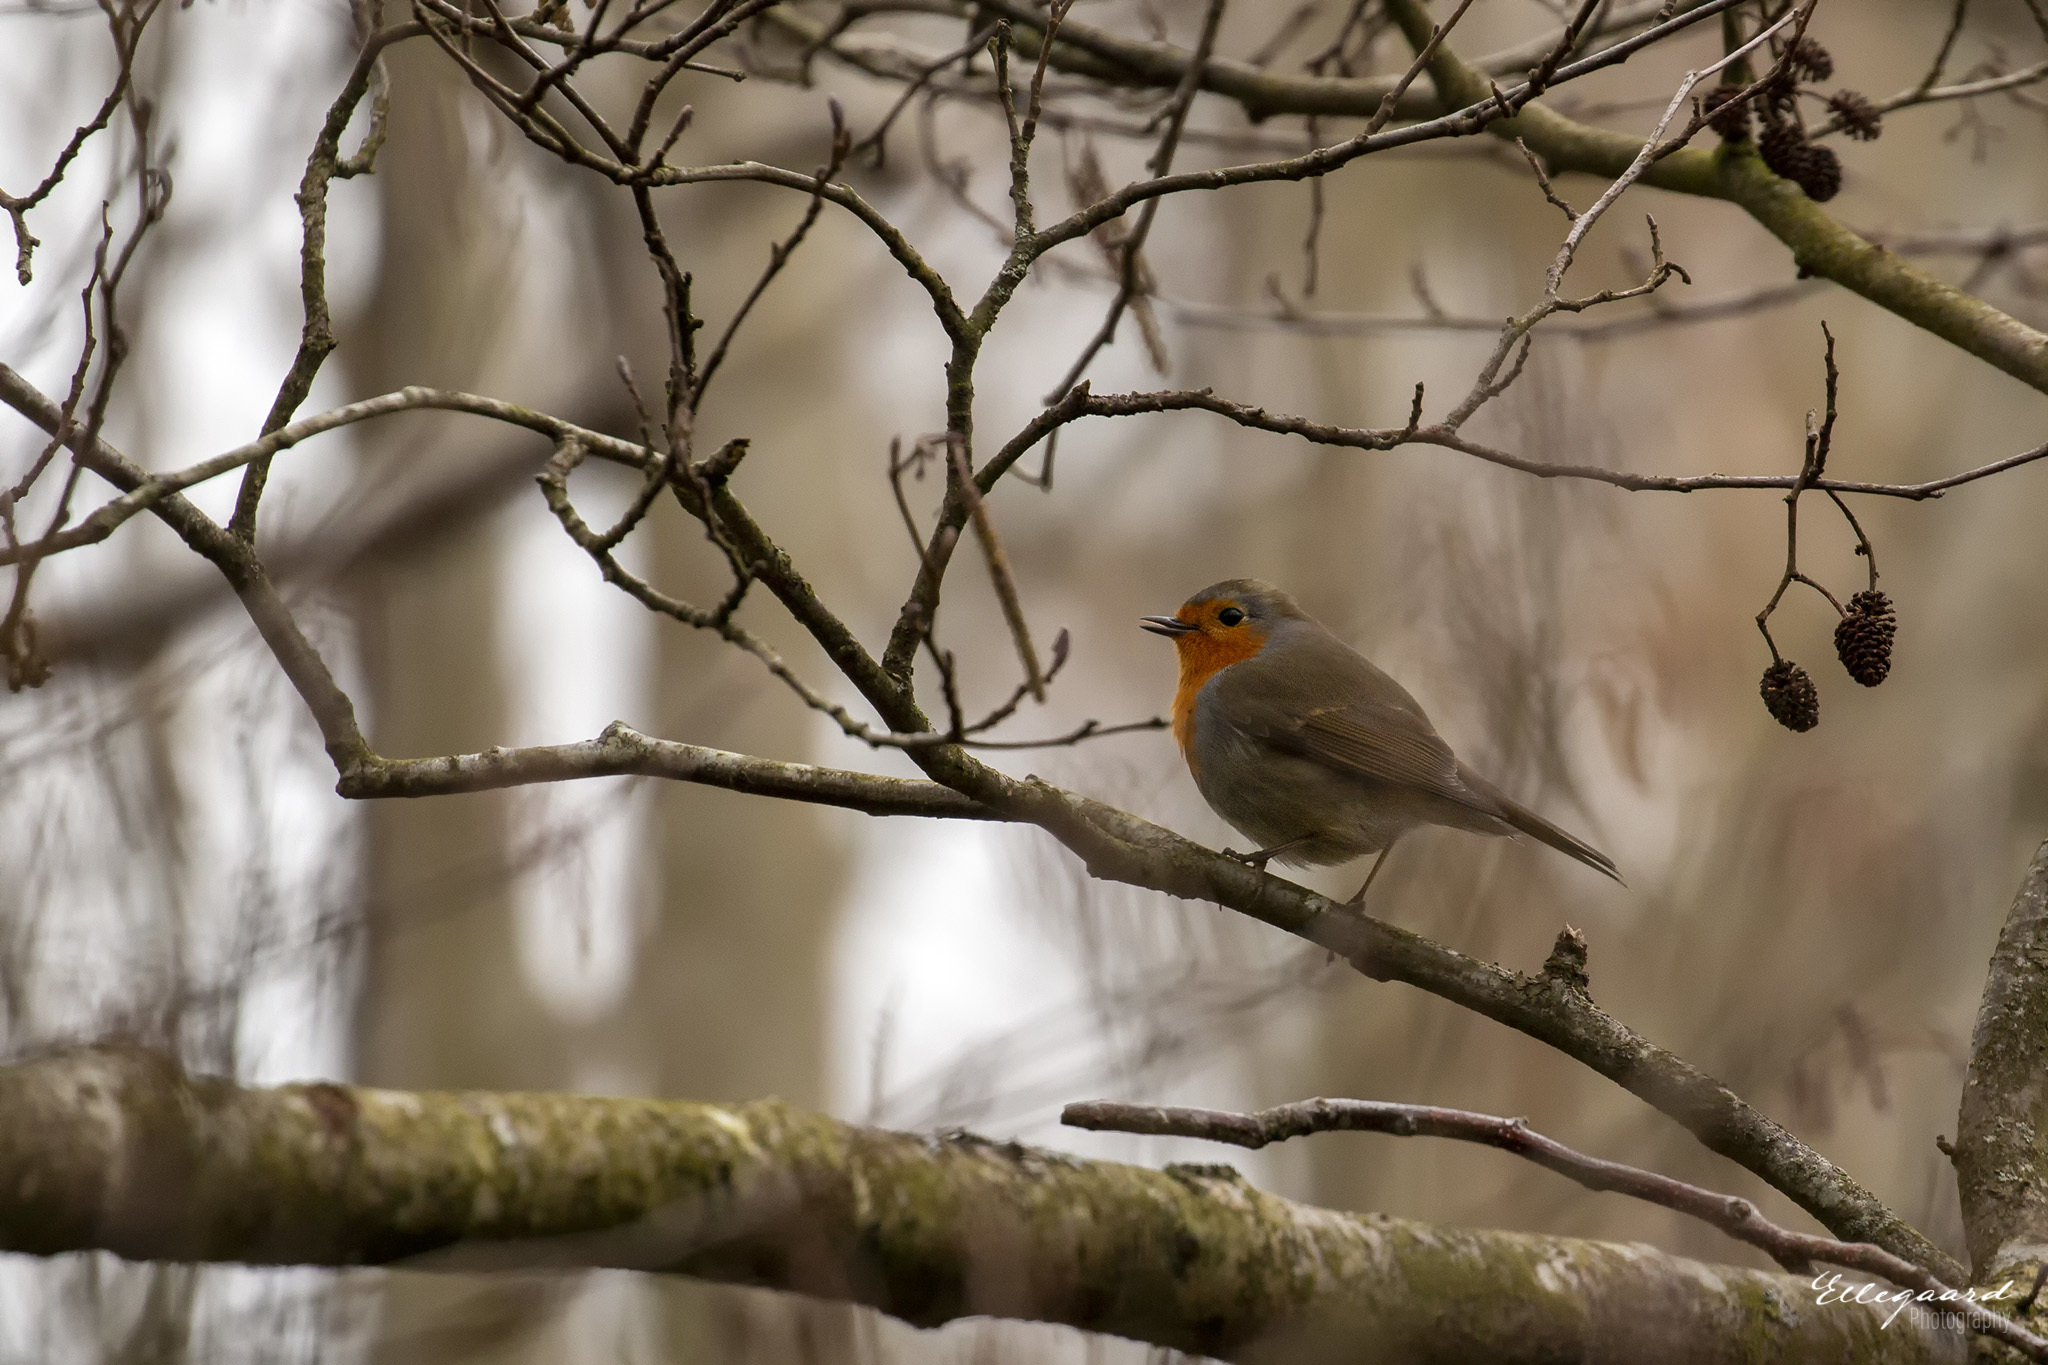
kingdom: Animalia
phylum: Chordata
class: Aves
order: Passeriformes
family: Muscicapidae
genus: Erithacus
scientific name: Erithacus rubecula
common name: European robin
